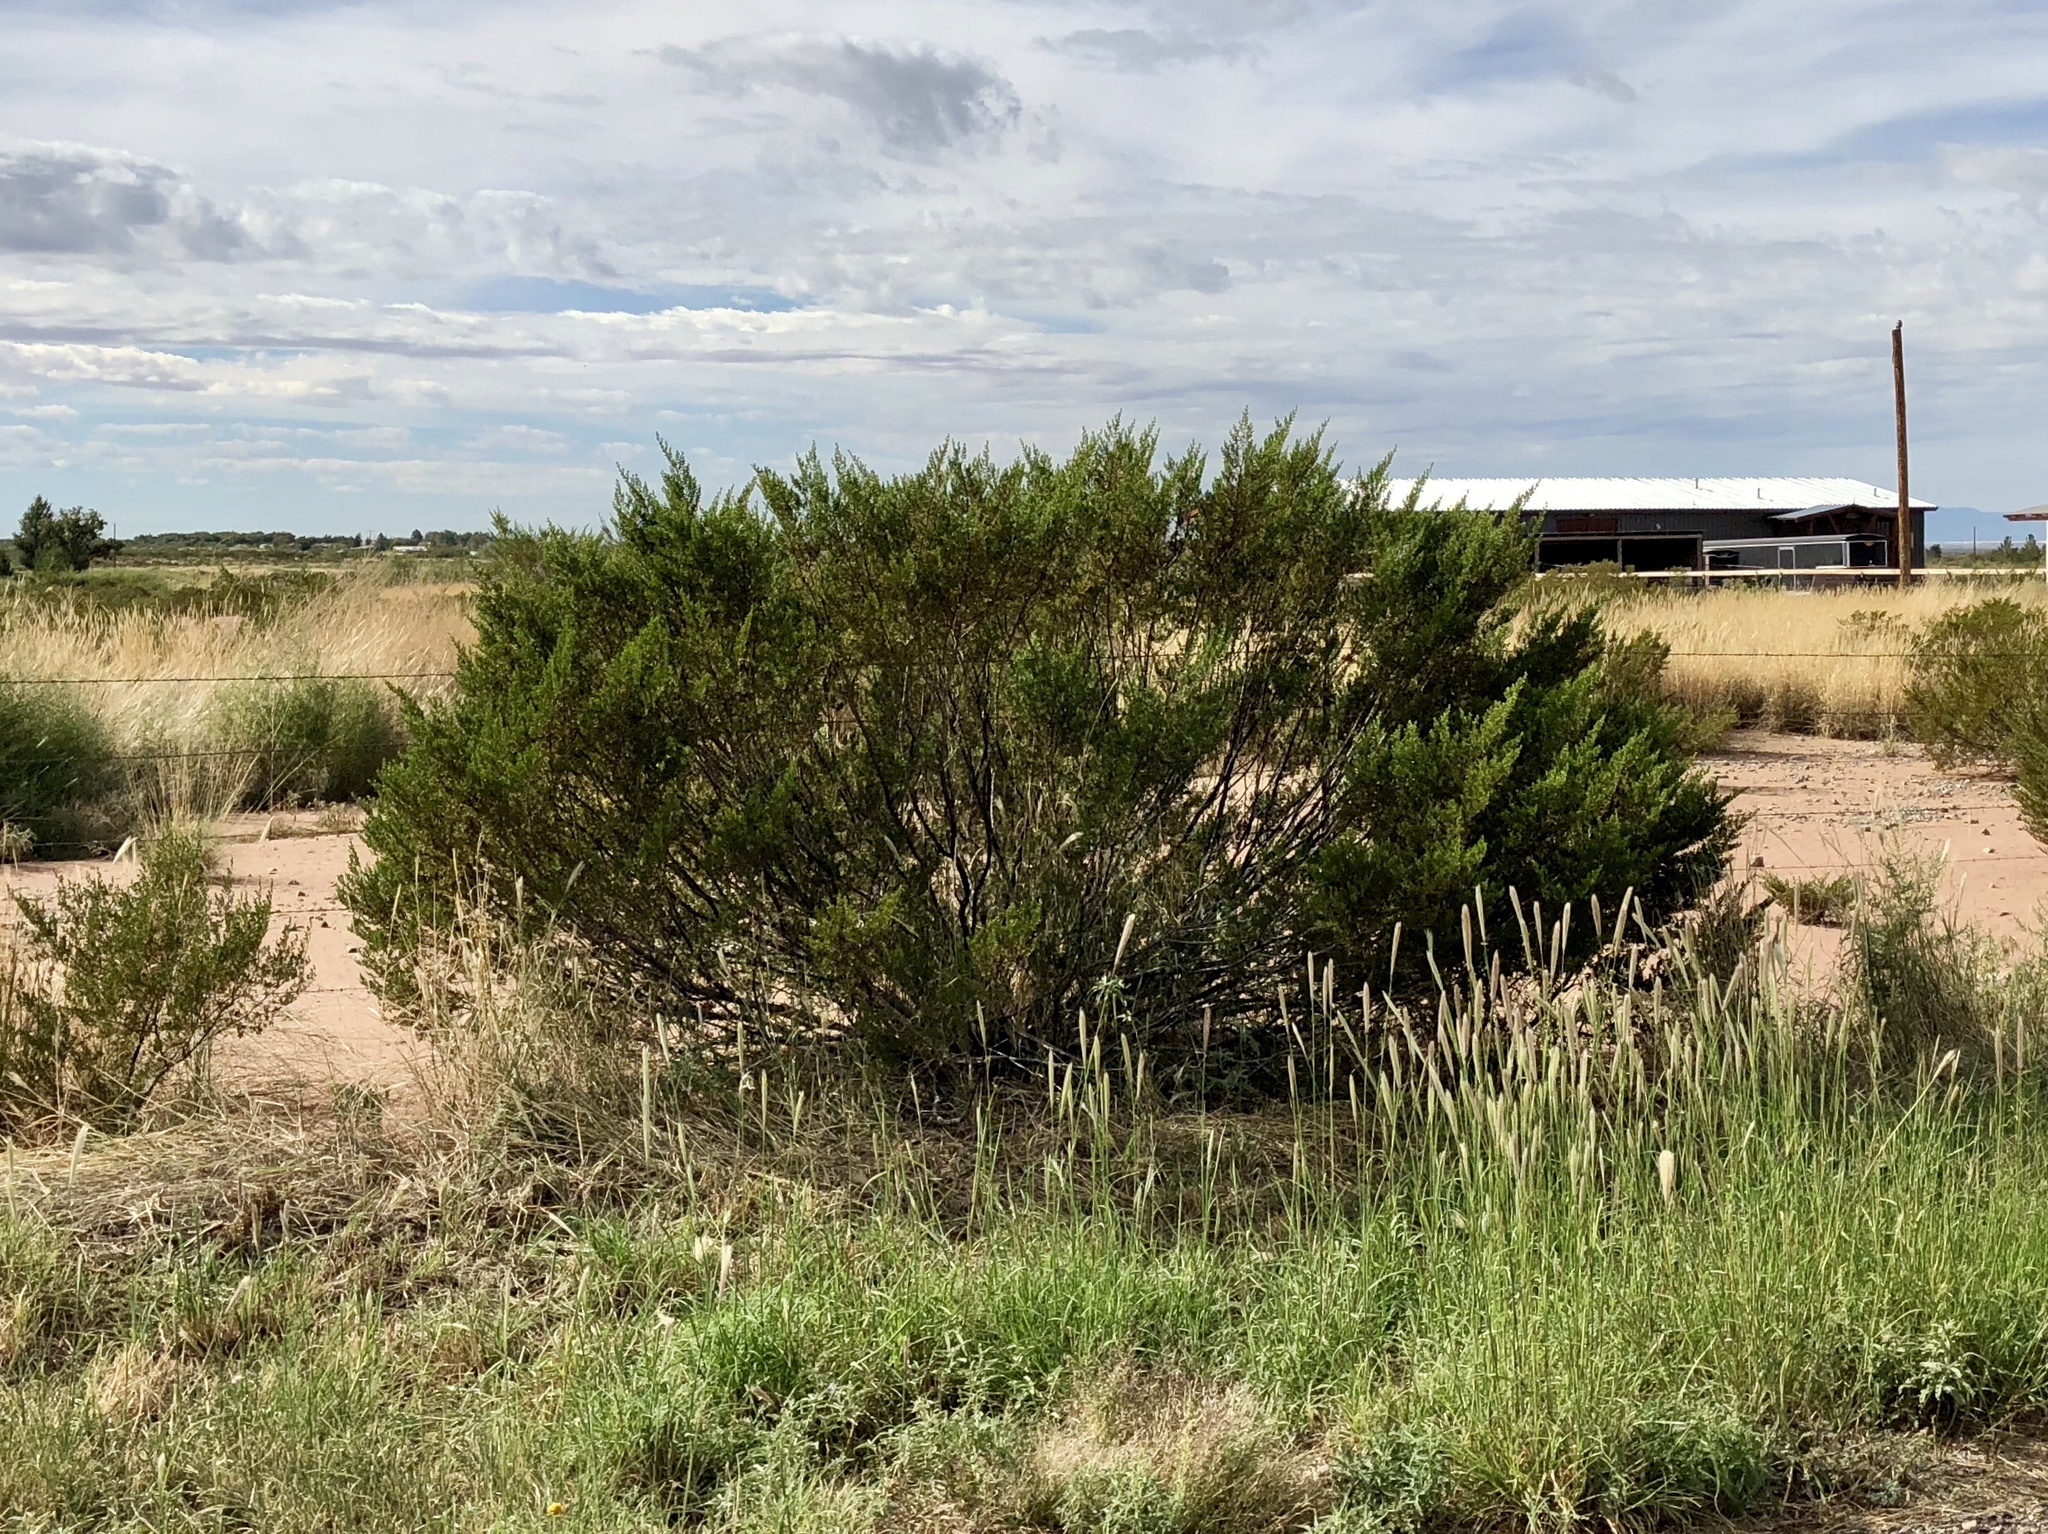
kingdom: Plantae
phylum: Tracheophyta
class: Magnoliopsida
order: Zygophyllales
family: Zygophyllaceae
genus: Larrea
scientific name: Larrea tridentata
